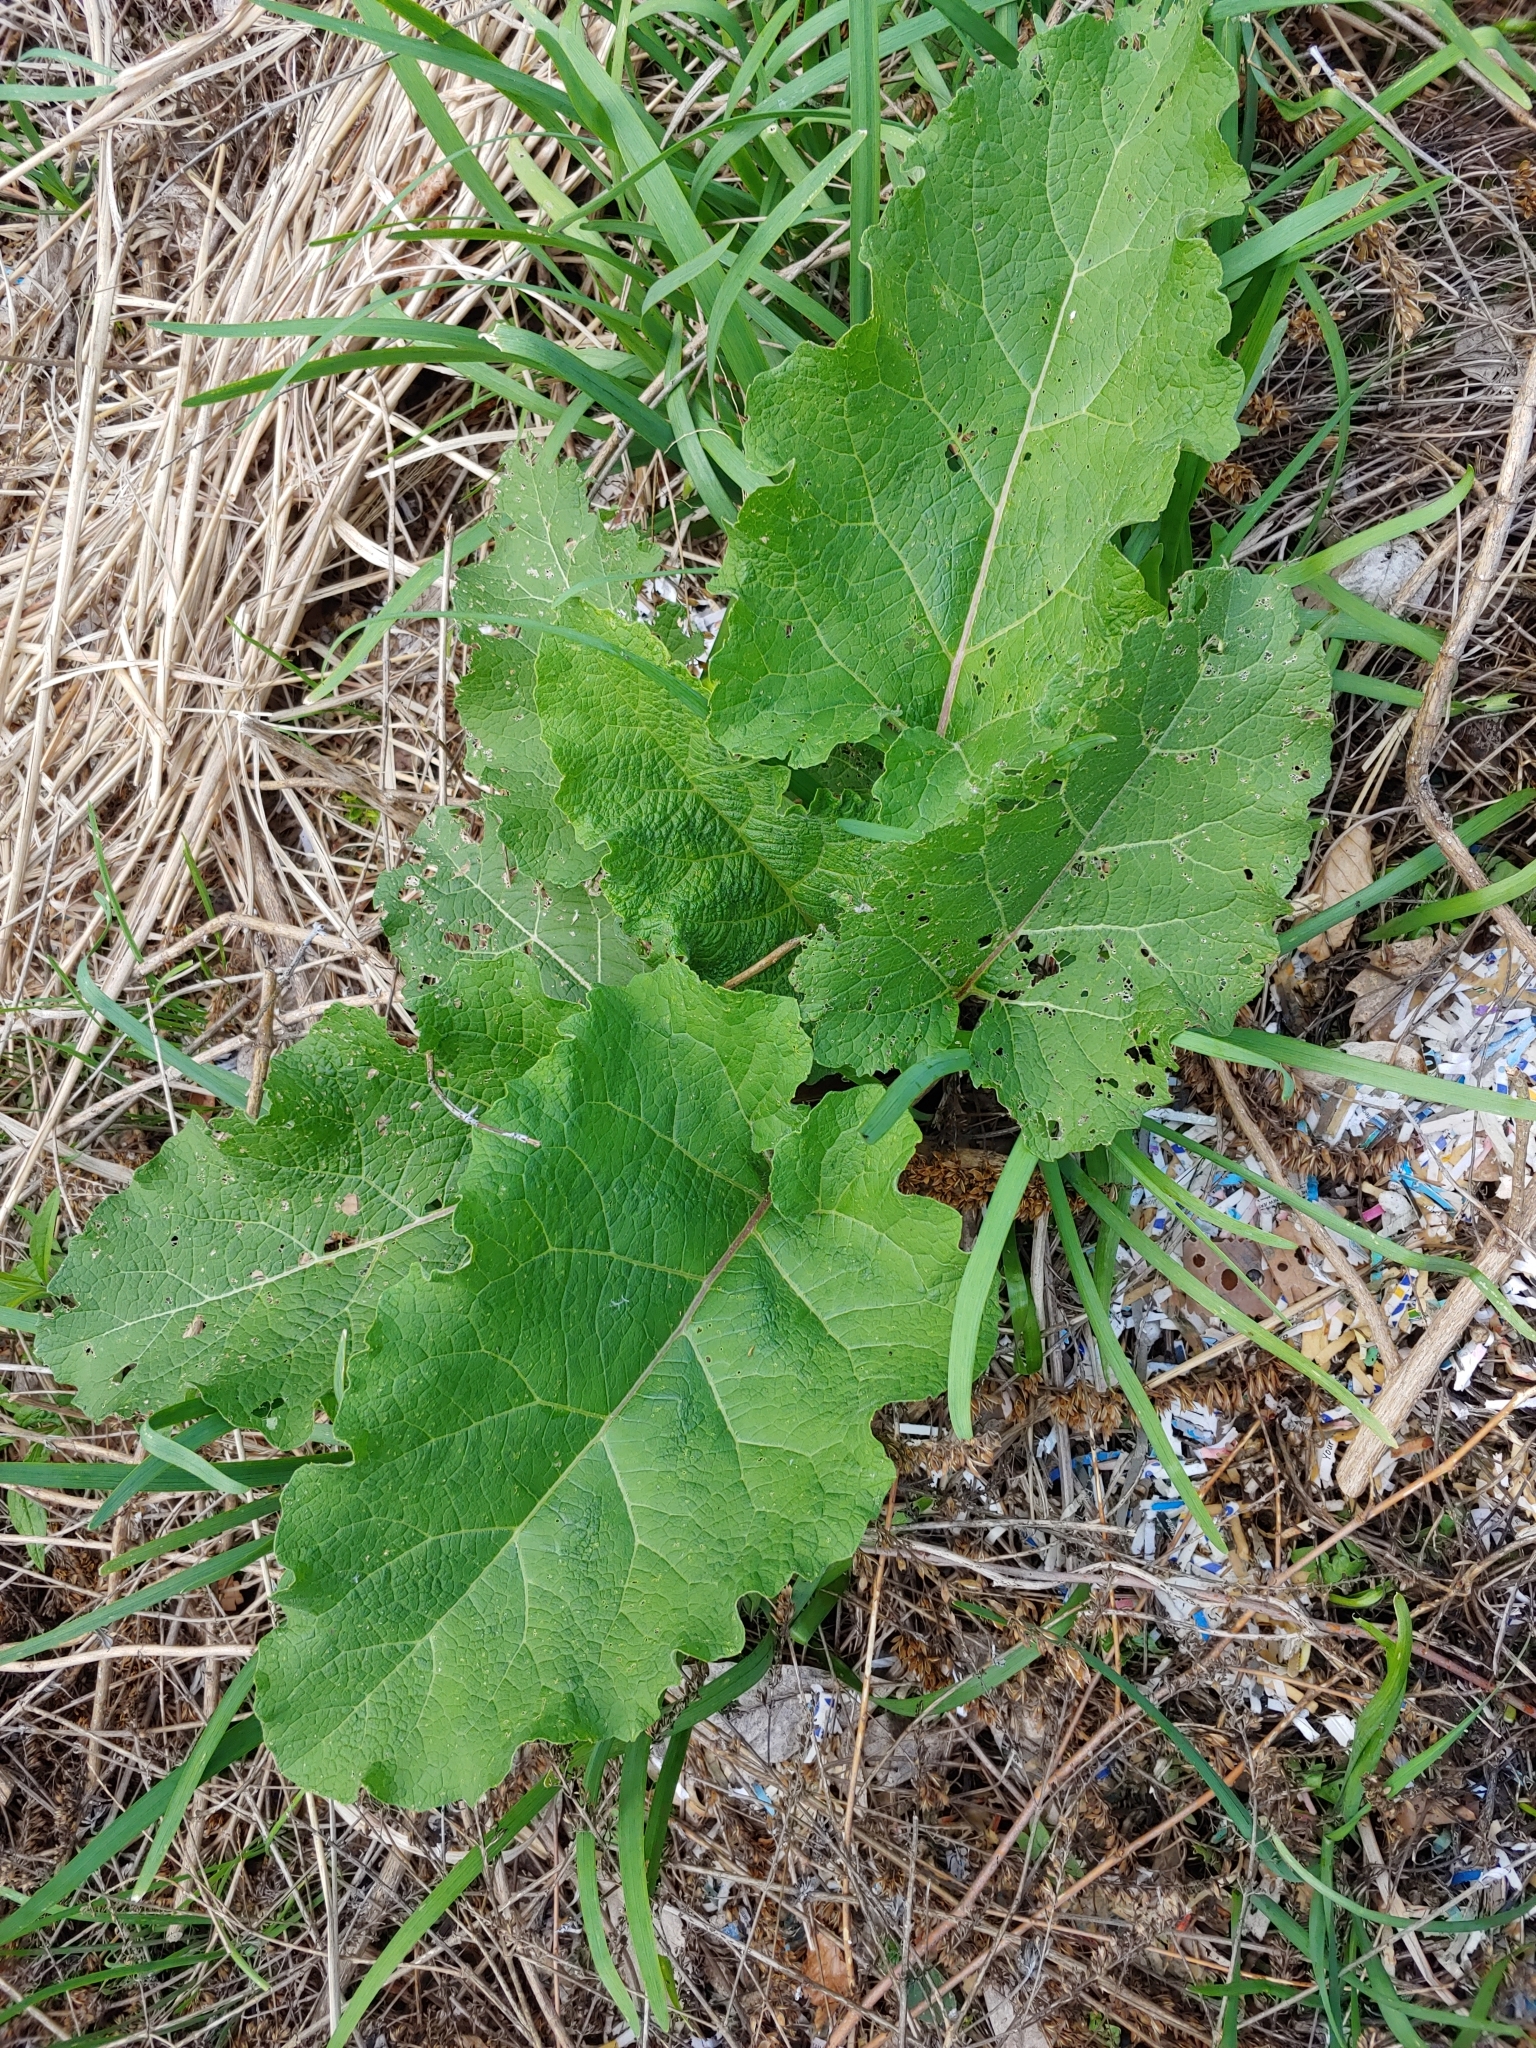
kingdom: Plantae
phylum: Tracheophyta
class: Magnoliopsida
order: Asterales
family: Asteraceae
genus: Arctium
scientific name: Arctium
